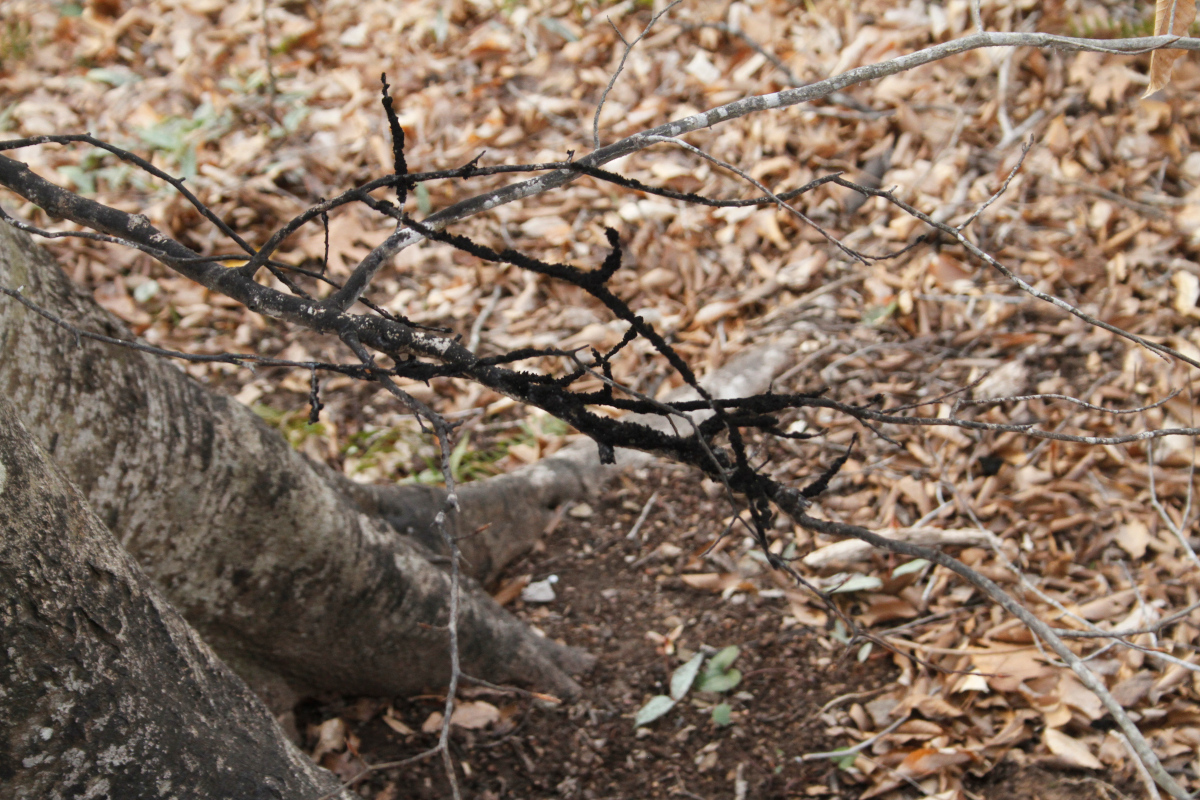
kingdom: Fungi
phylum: Ascomycota
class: Dothideomycetes
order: Capnodiales
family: Capnodiaceae
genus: Scorias
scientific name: Scorias spongiosa
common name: Black sooty mold
